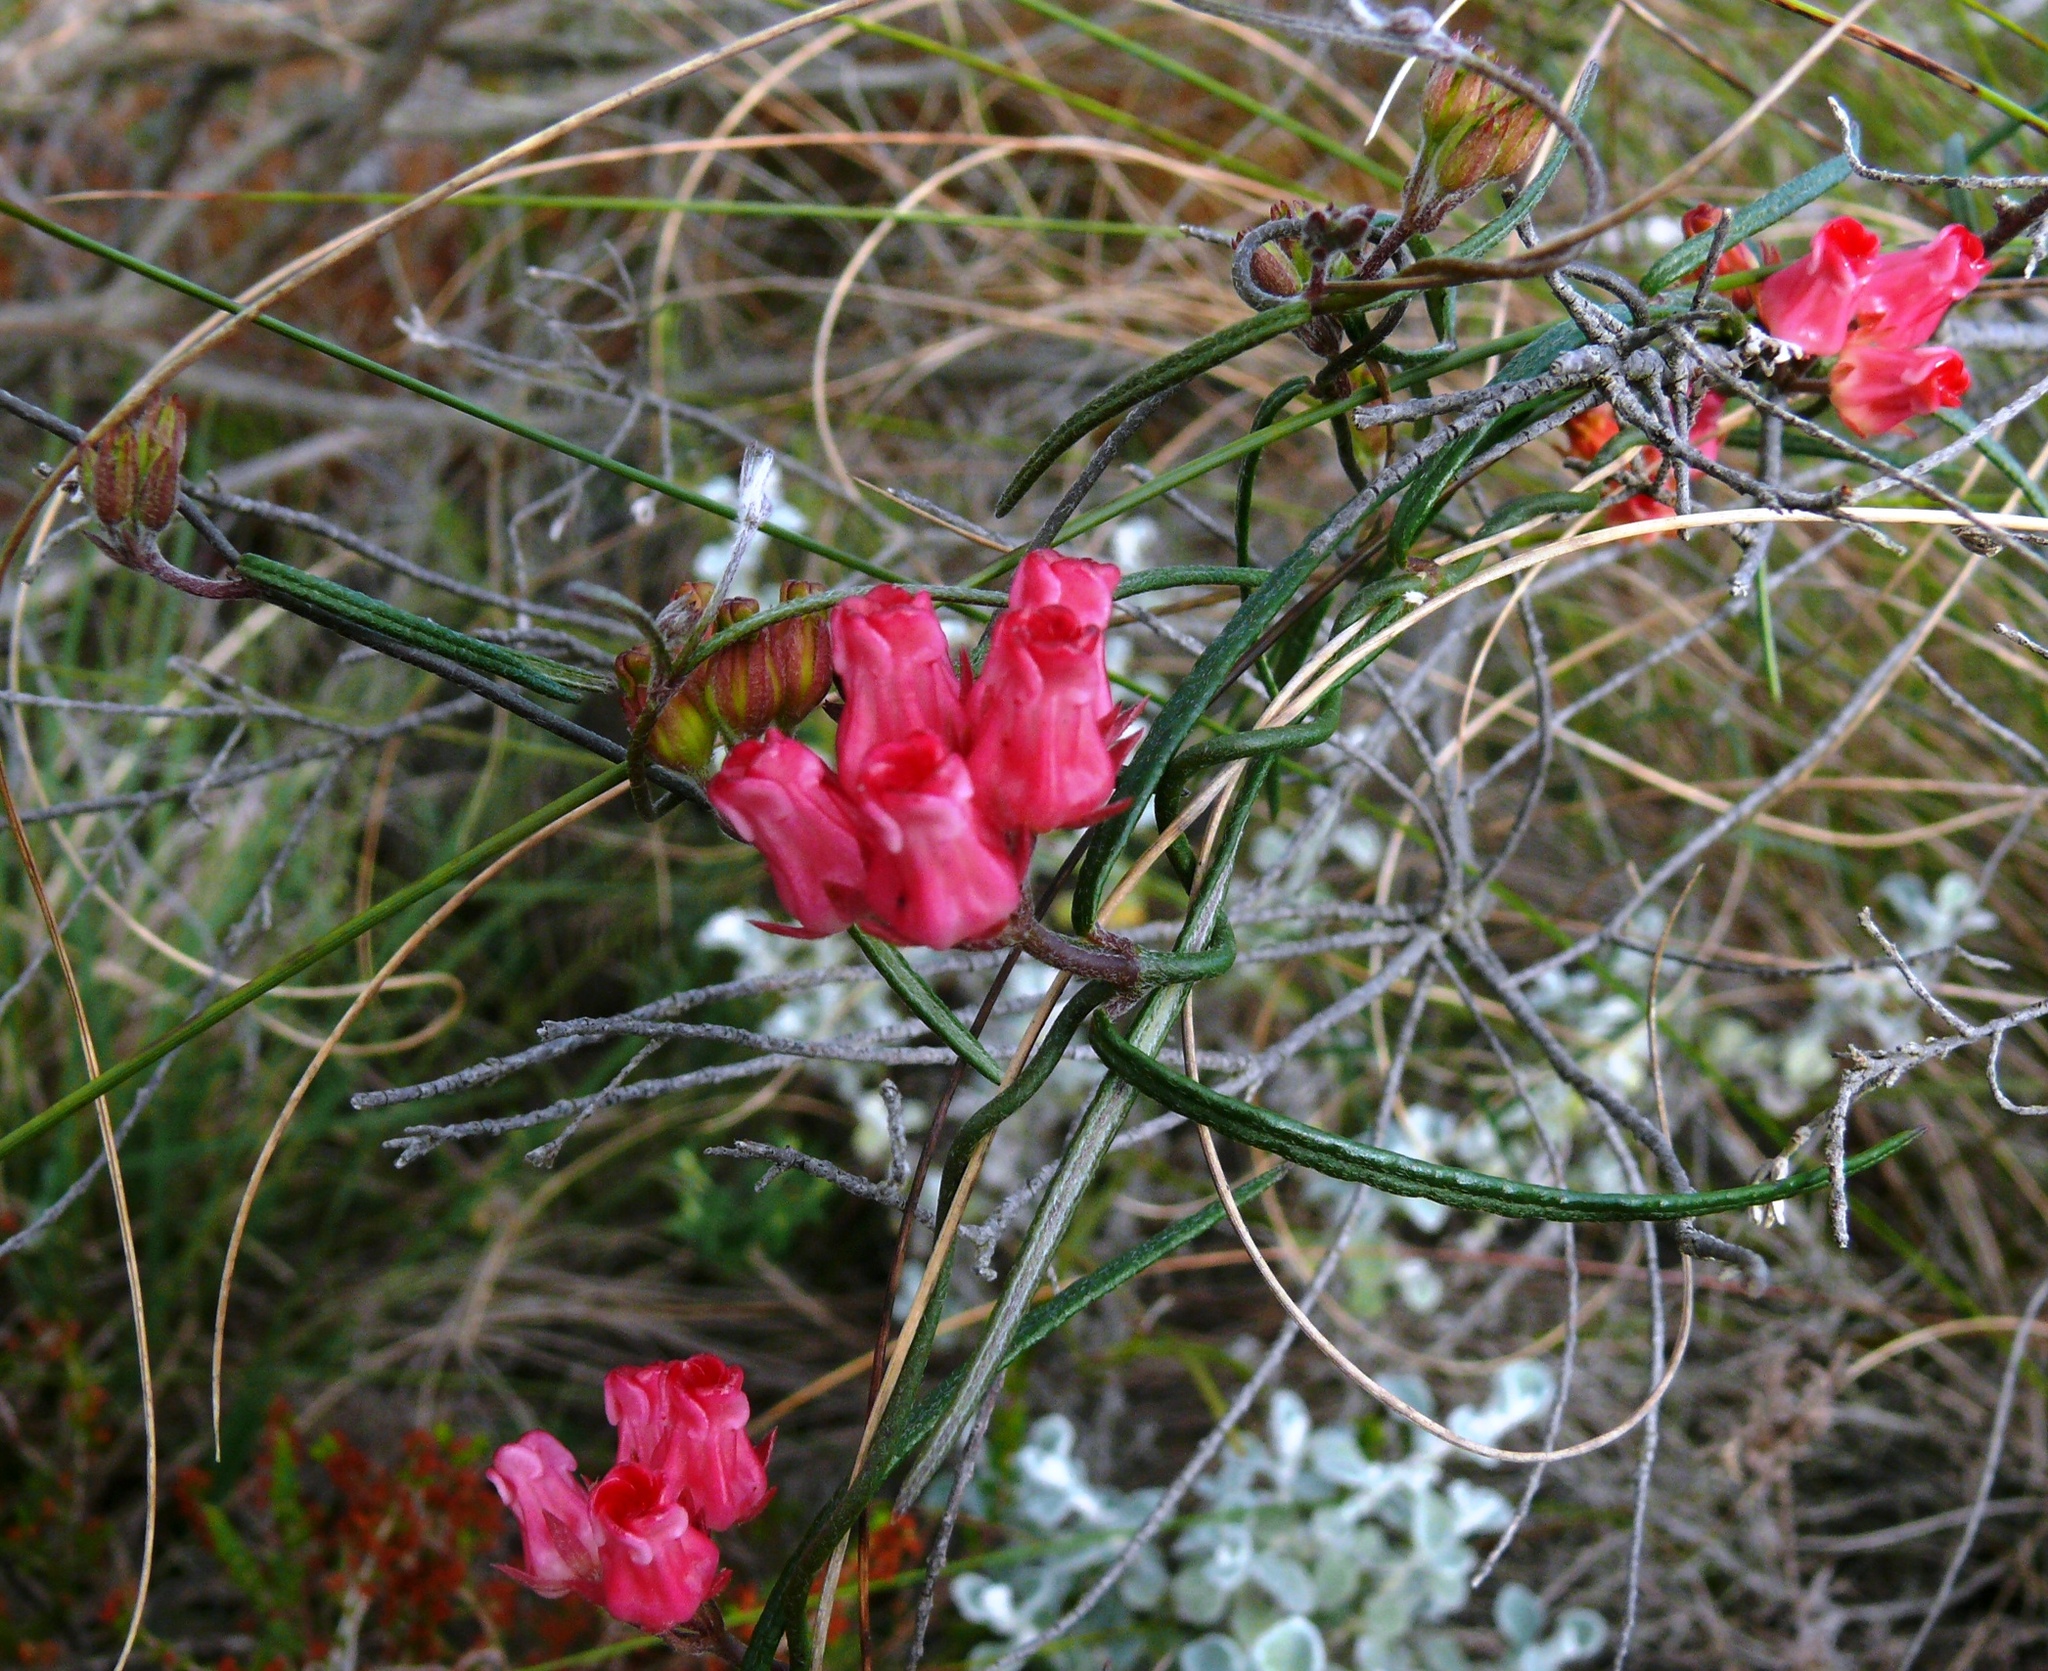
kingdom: Plantae
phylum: Tracheophyta
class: Magnoliopsida
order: Gentianales
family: Apocynaceae
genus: Microloma
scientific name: Microloma tenuifolium
